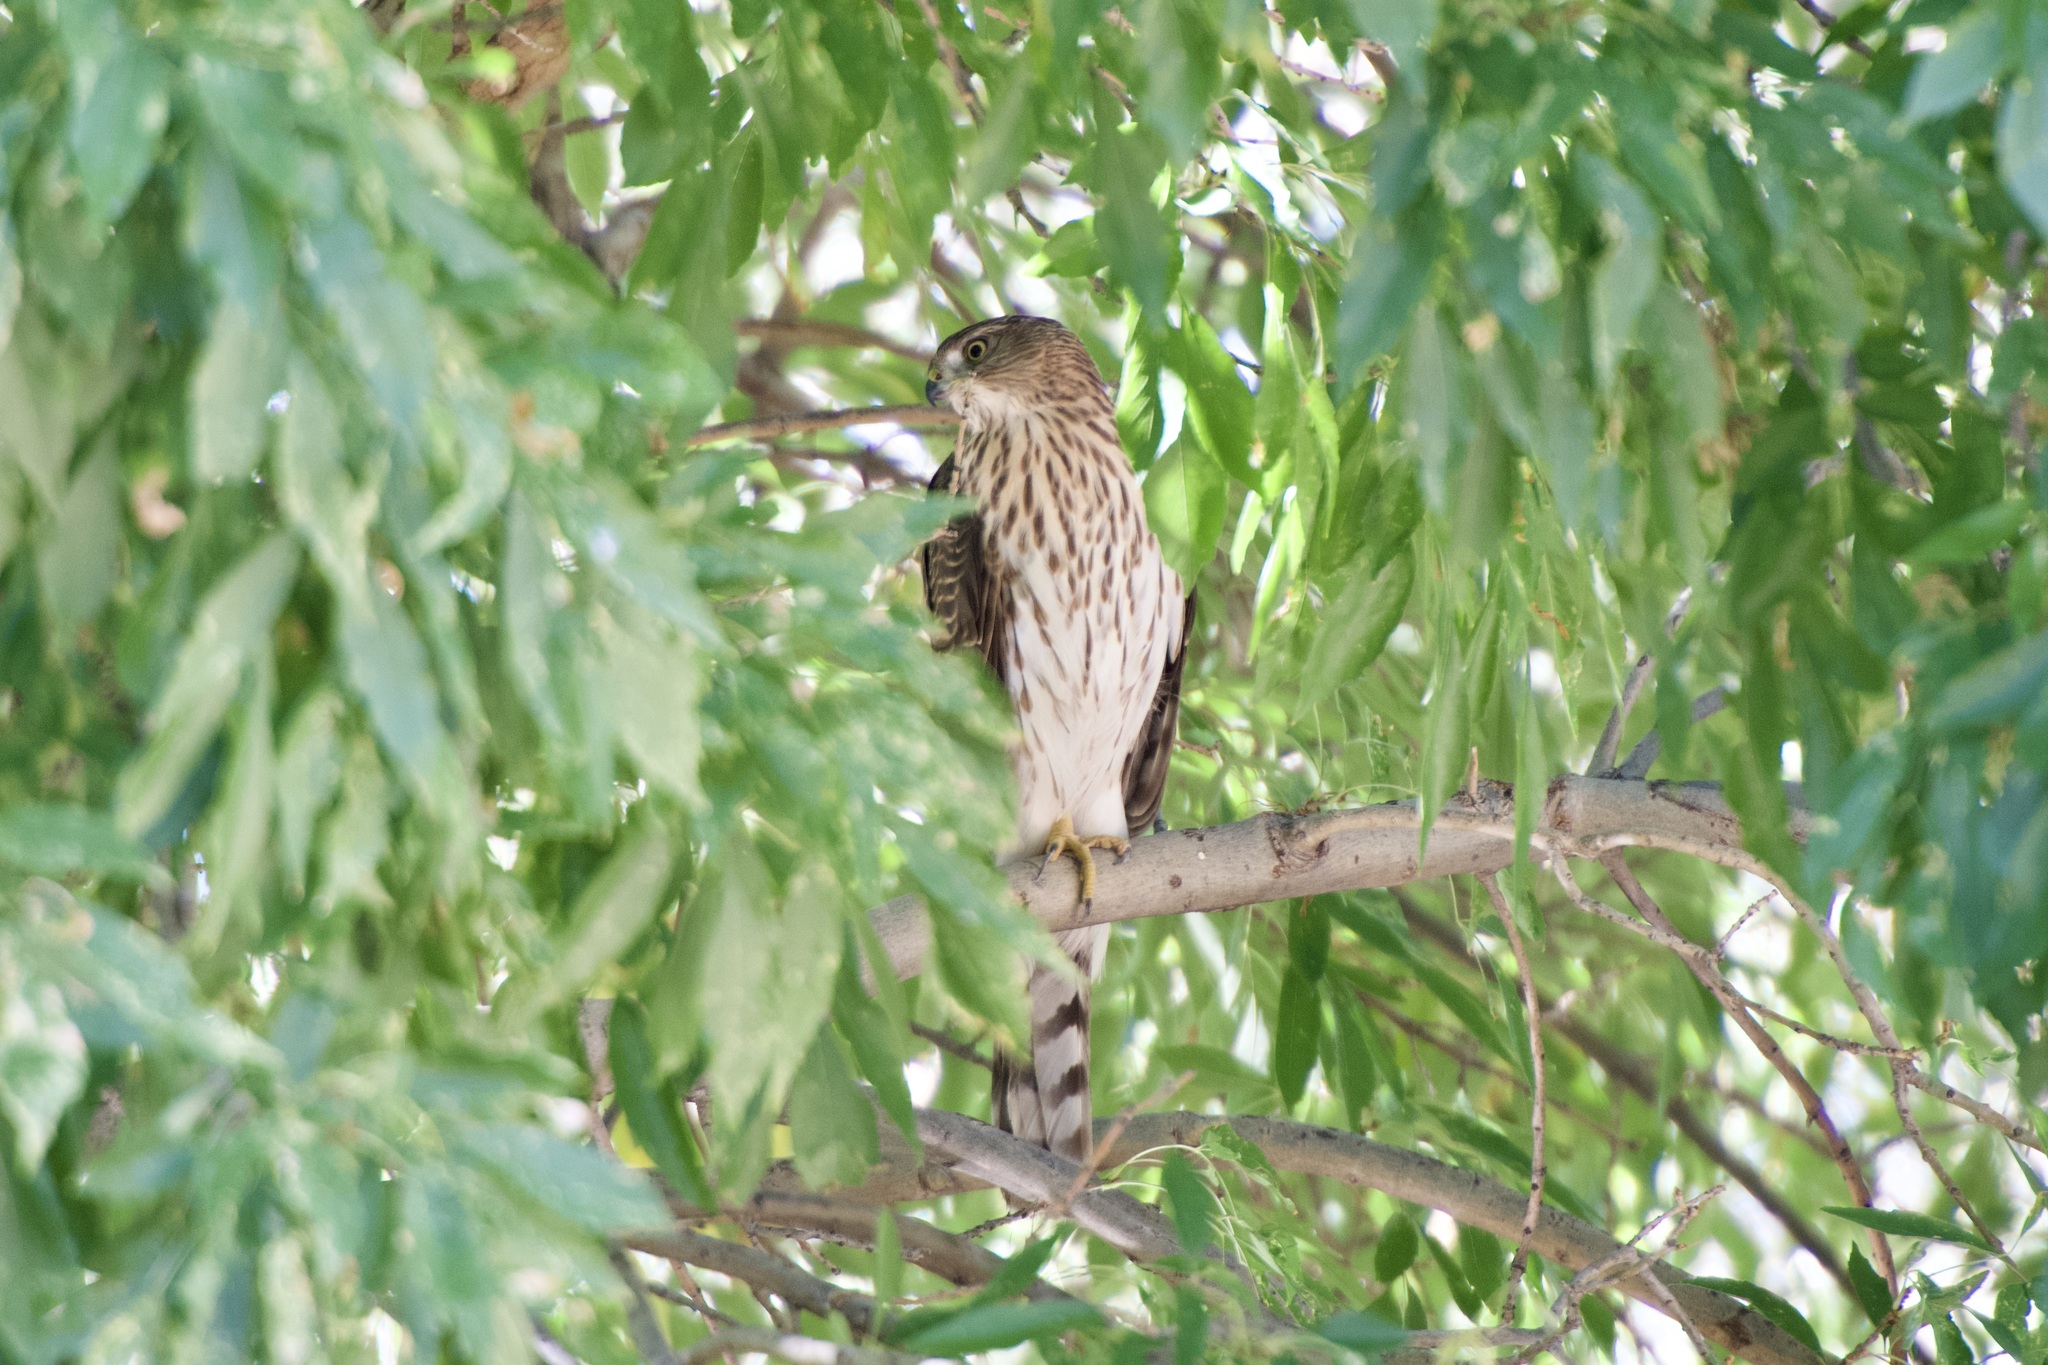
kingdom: Animalia
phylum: Chordata
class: Aves
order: Accipitriformes
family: Accipitridae
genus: Accipiter
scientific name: Accipiter cooperii
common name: Cooper's hawk
